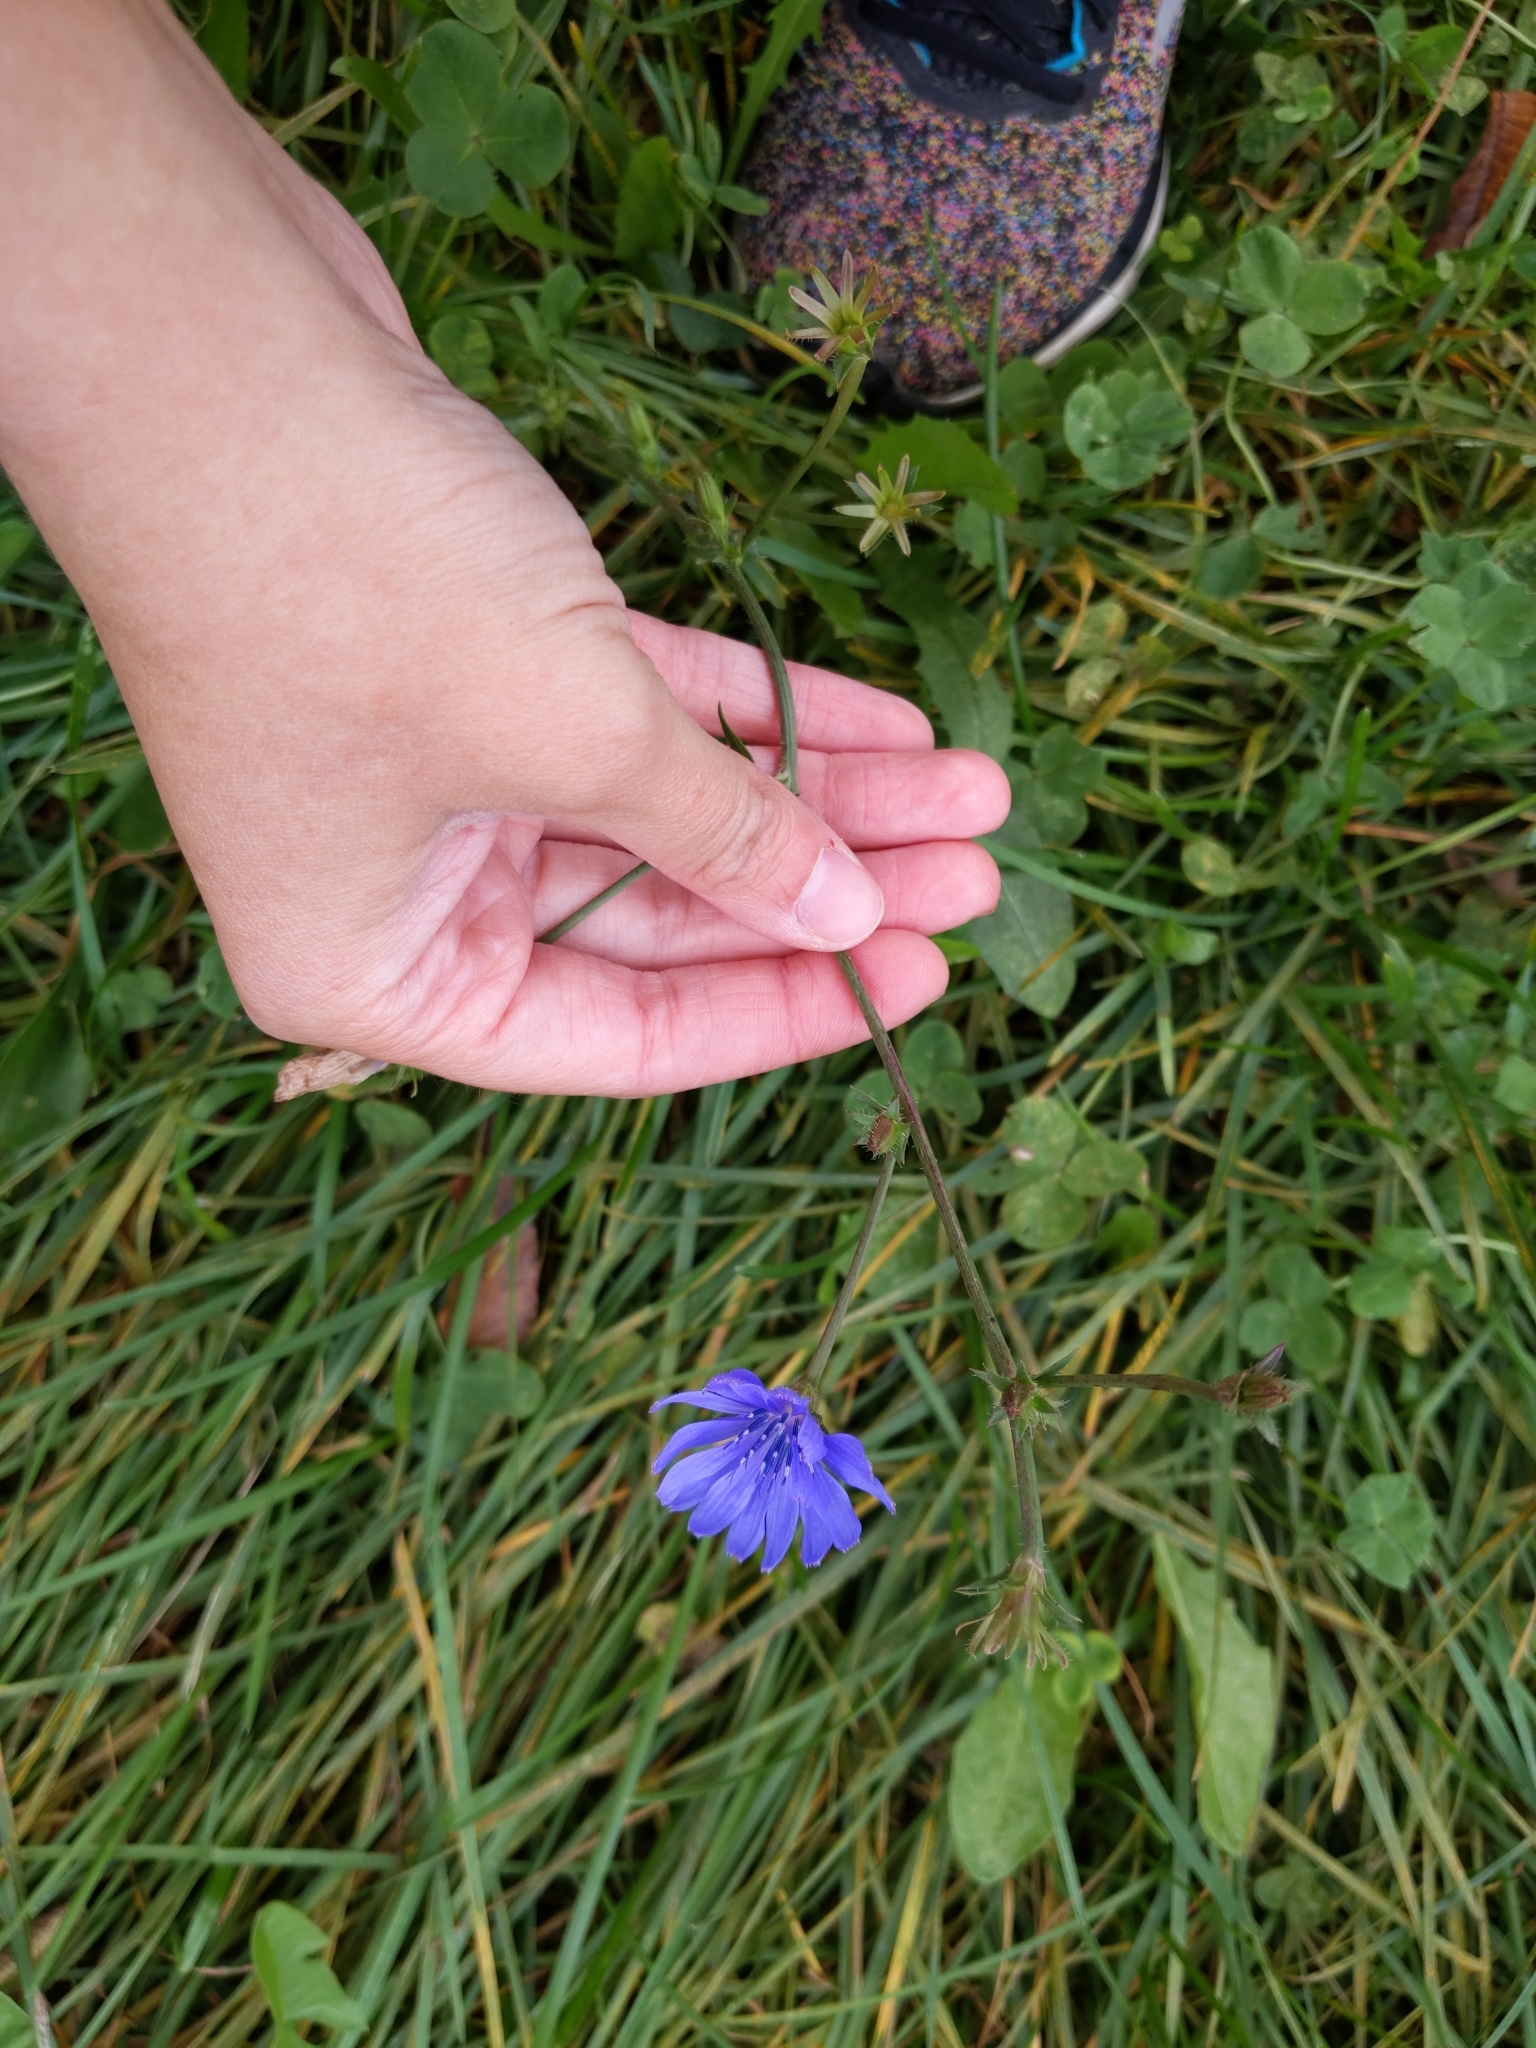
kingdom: Plantae
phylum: Tracheophyta
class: Magnoliopsida
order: Asterales
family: Asteraceae
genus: Cichorium
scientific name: Cichorium intybus
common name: Chicory
